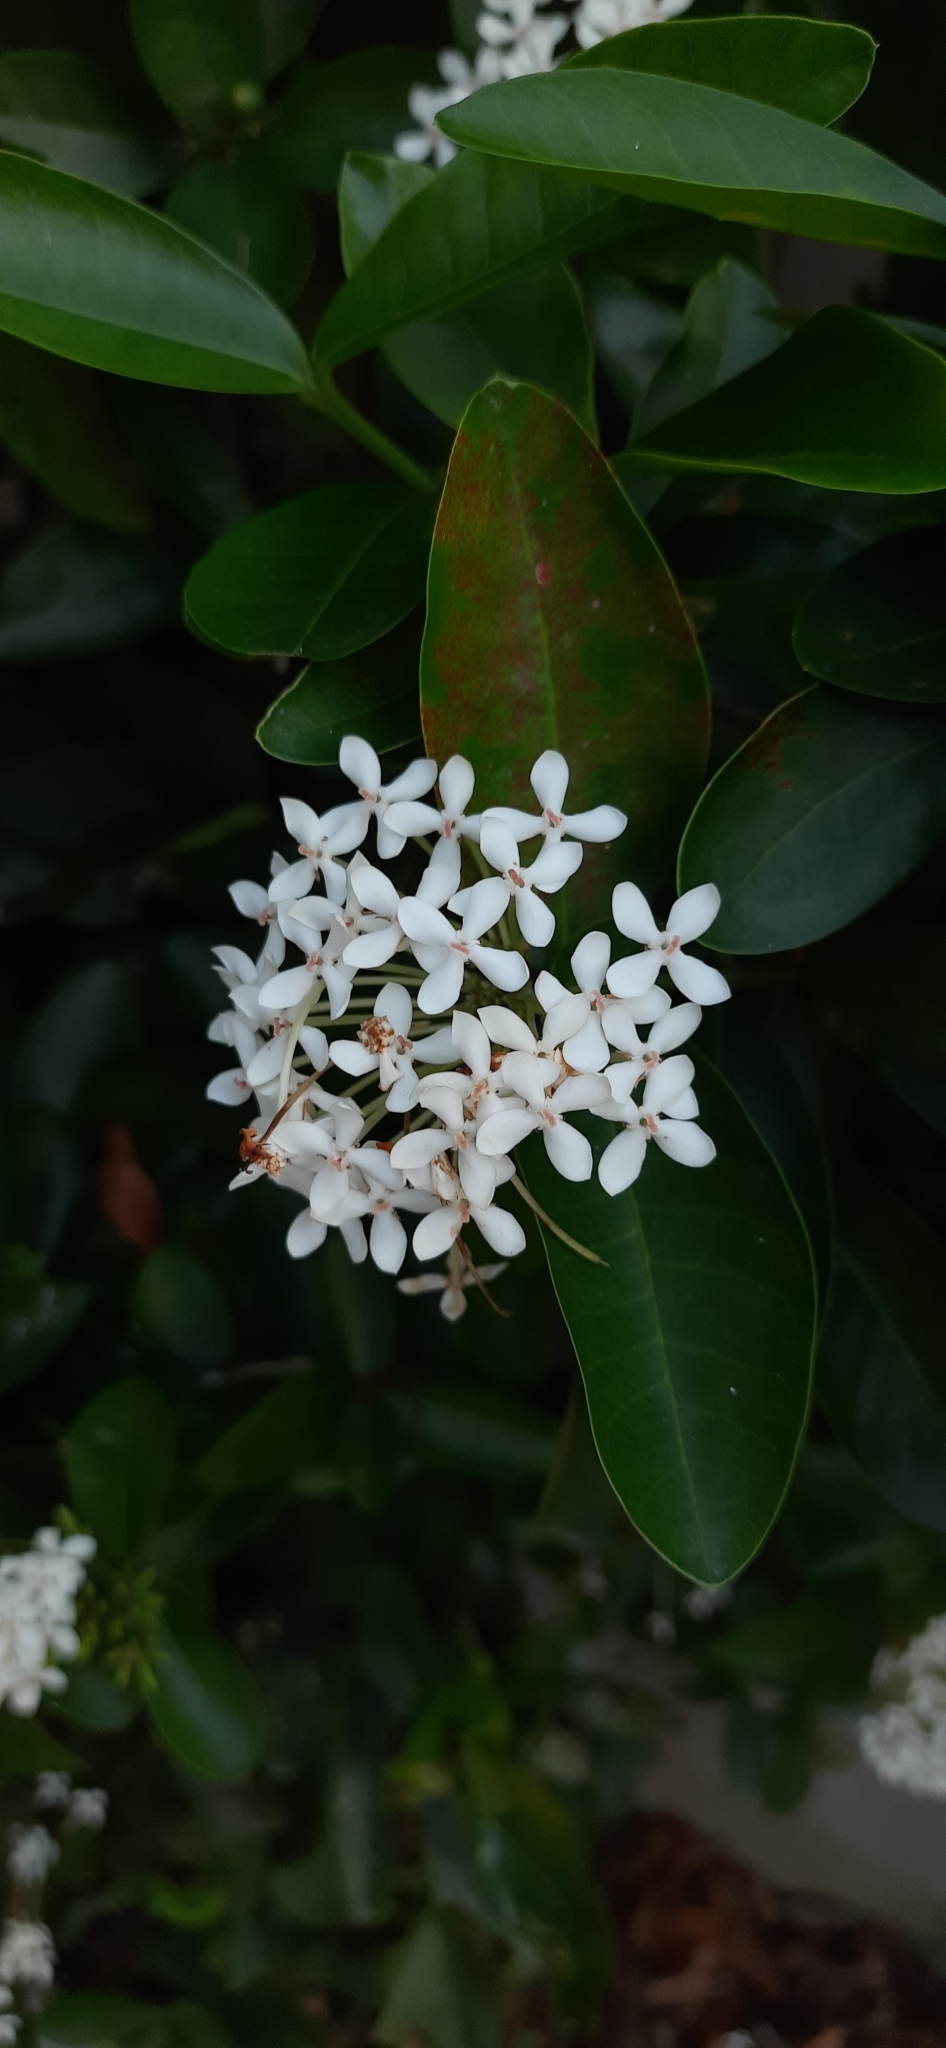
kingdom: Plantae
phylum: Tracheophyta
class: Magnoliopsida
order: Gentianales
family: Rubiaceae
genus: Ixora
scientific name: Ixora finlaysoniana
